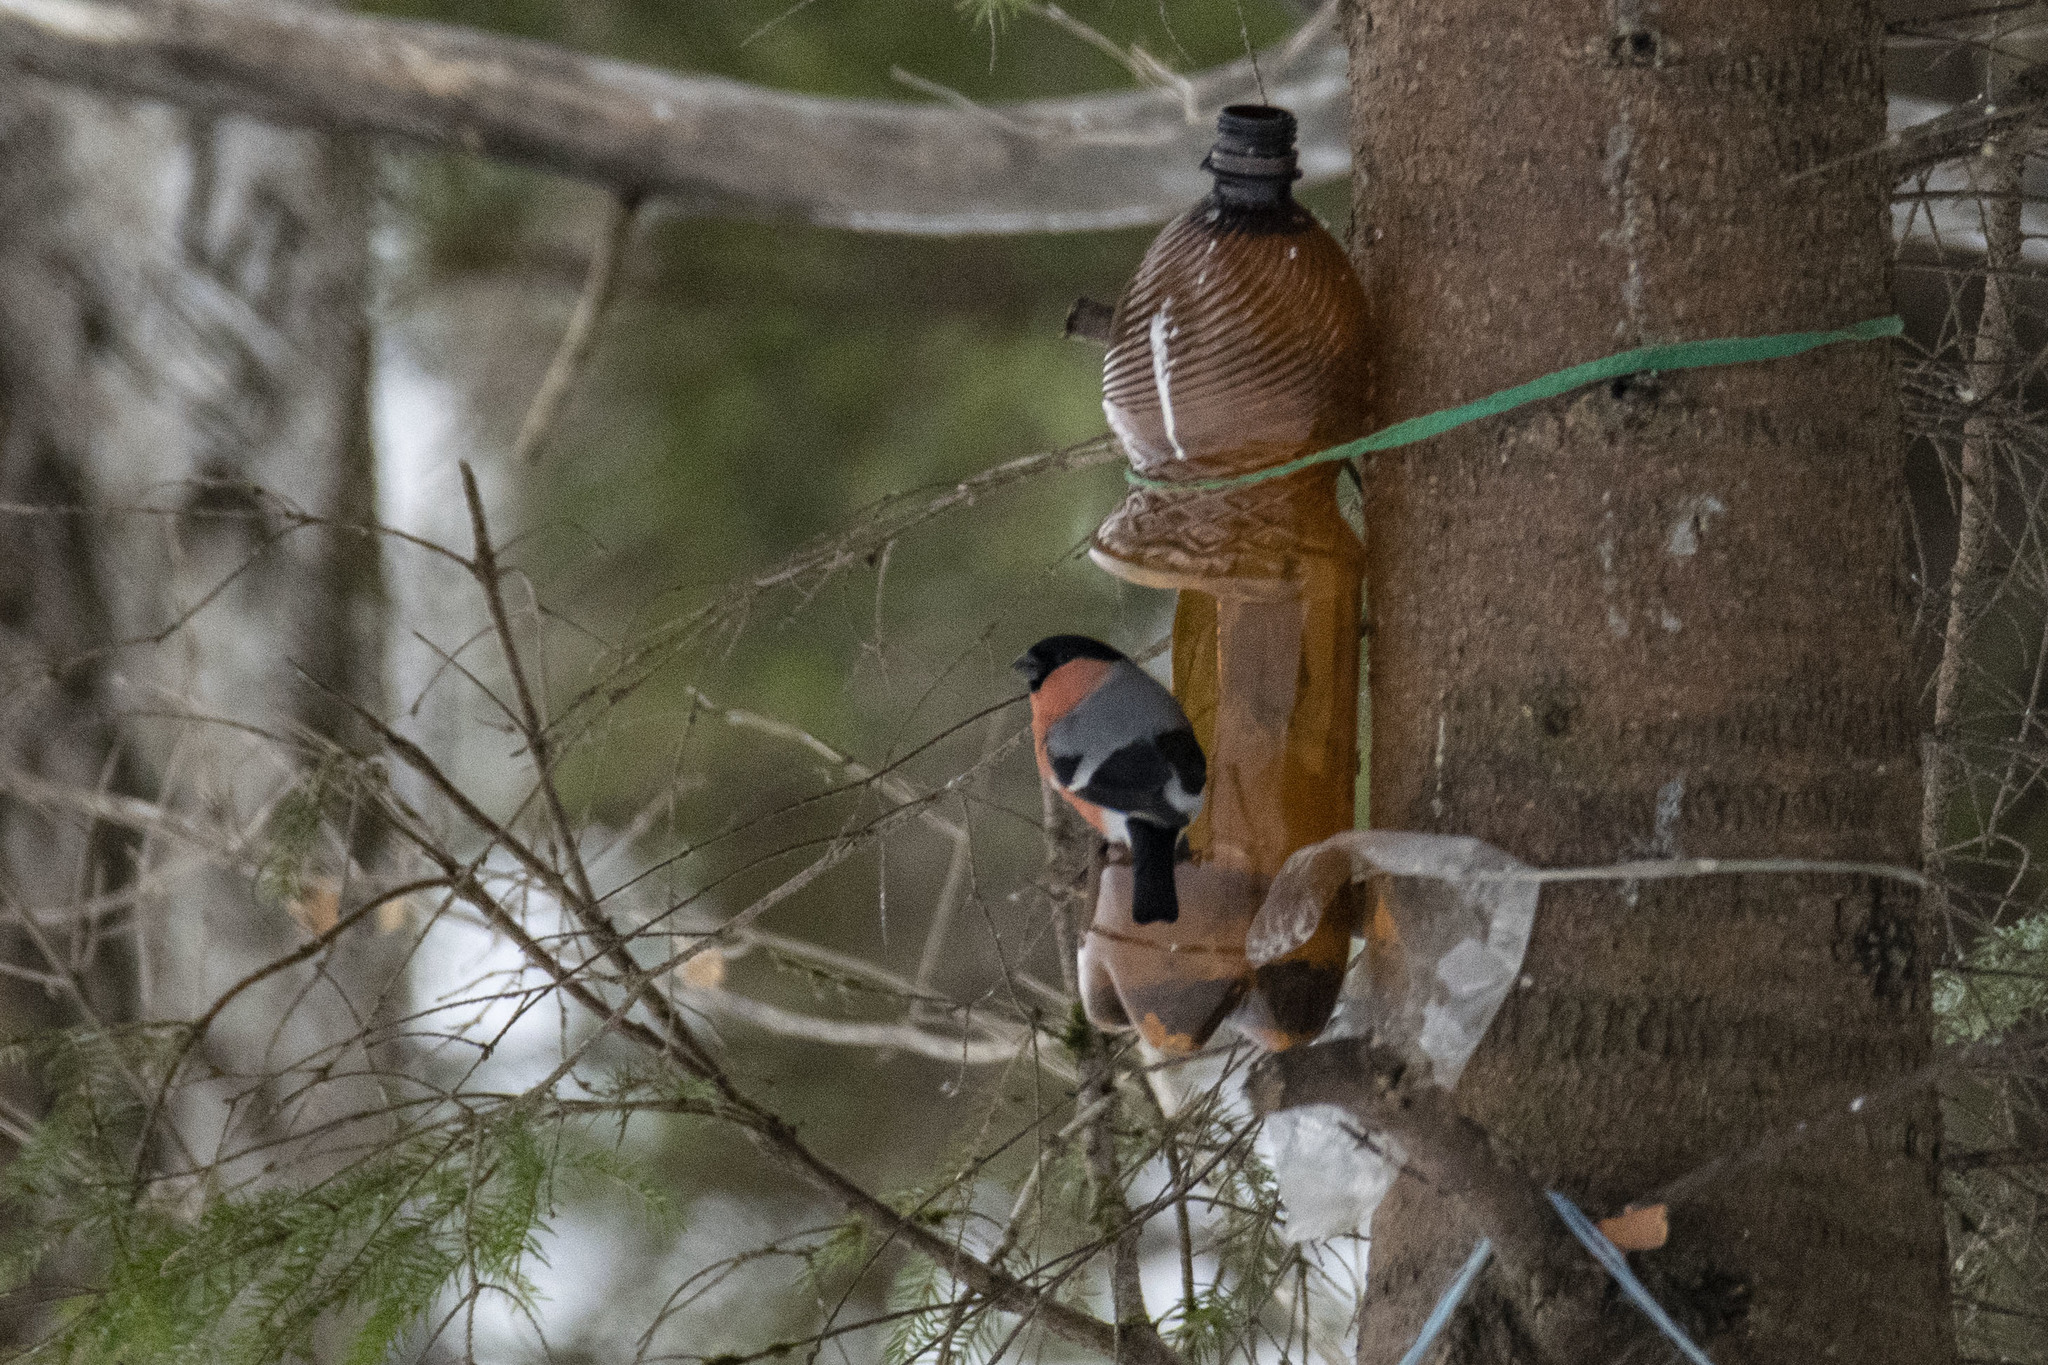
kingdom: Animalia
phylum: Chordata
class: Aves
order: Passeriformes
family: Fringillidae
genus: Pyrrhula
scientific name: Pyrrhula pyrrhula
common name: Eurasian bullfinch
